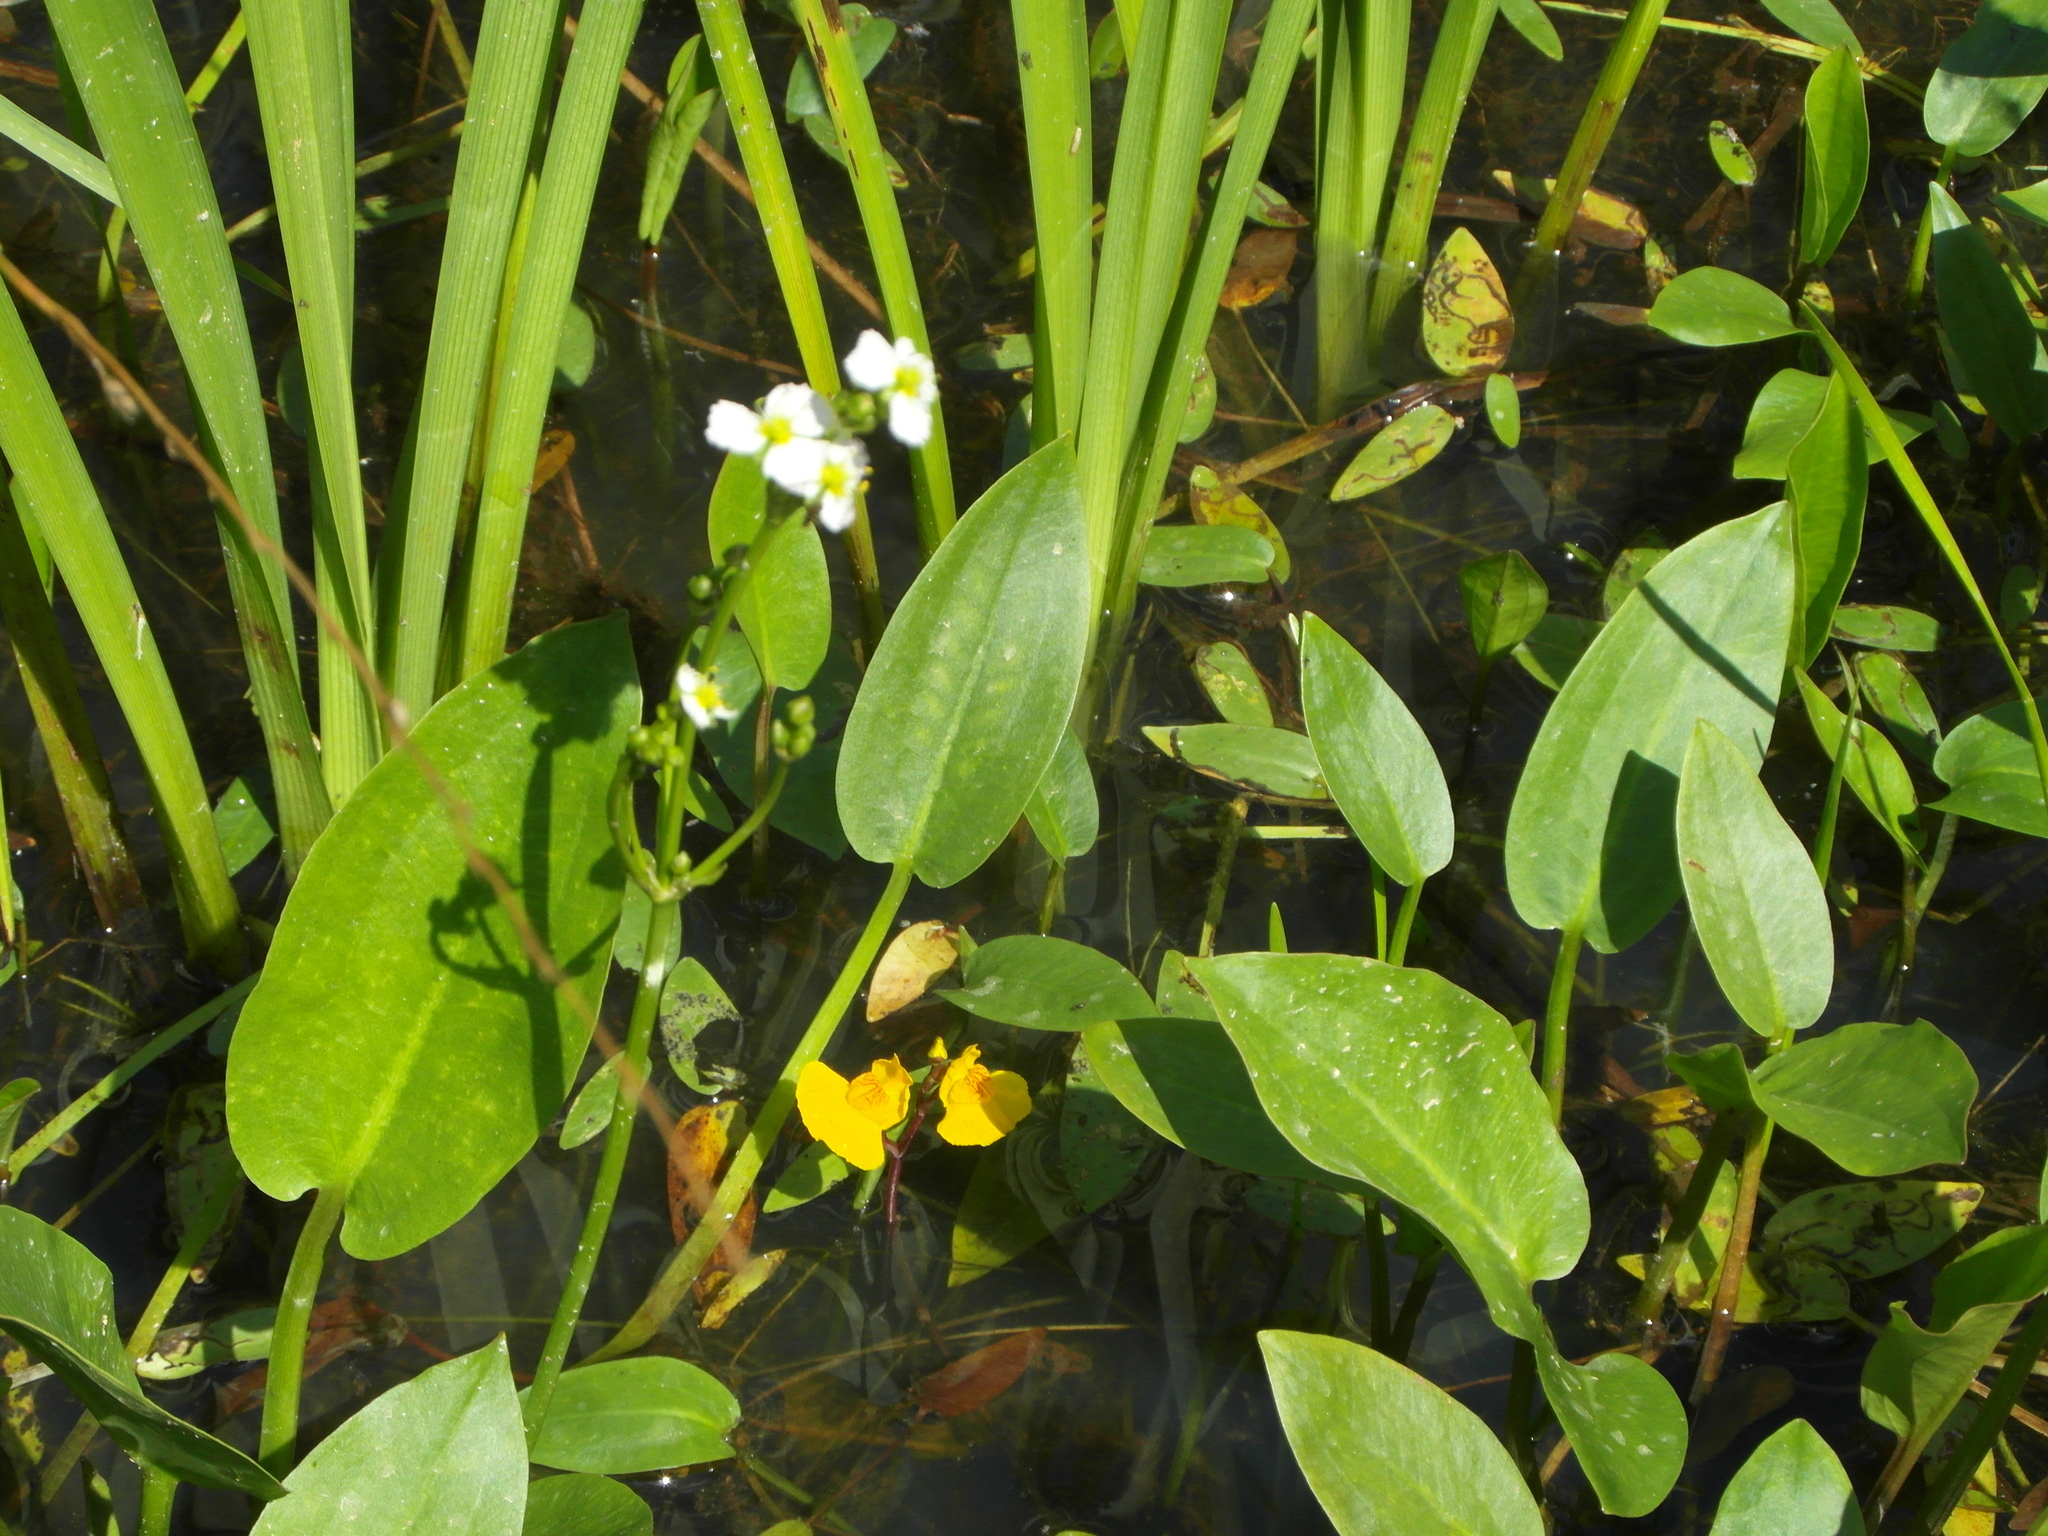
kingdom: Plantae
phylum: Tracheophyta
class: Magnoliopsida
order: Lamiales
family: Lentibulariaceae
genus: Utricularia
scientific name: Utricularia australis
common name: Bladderwort
